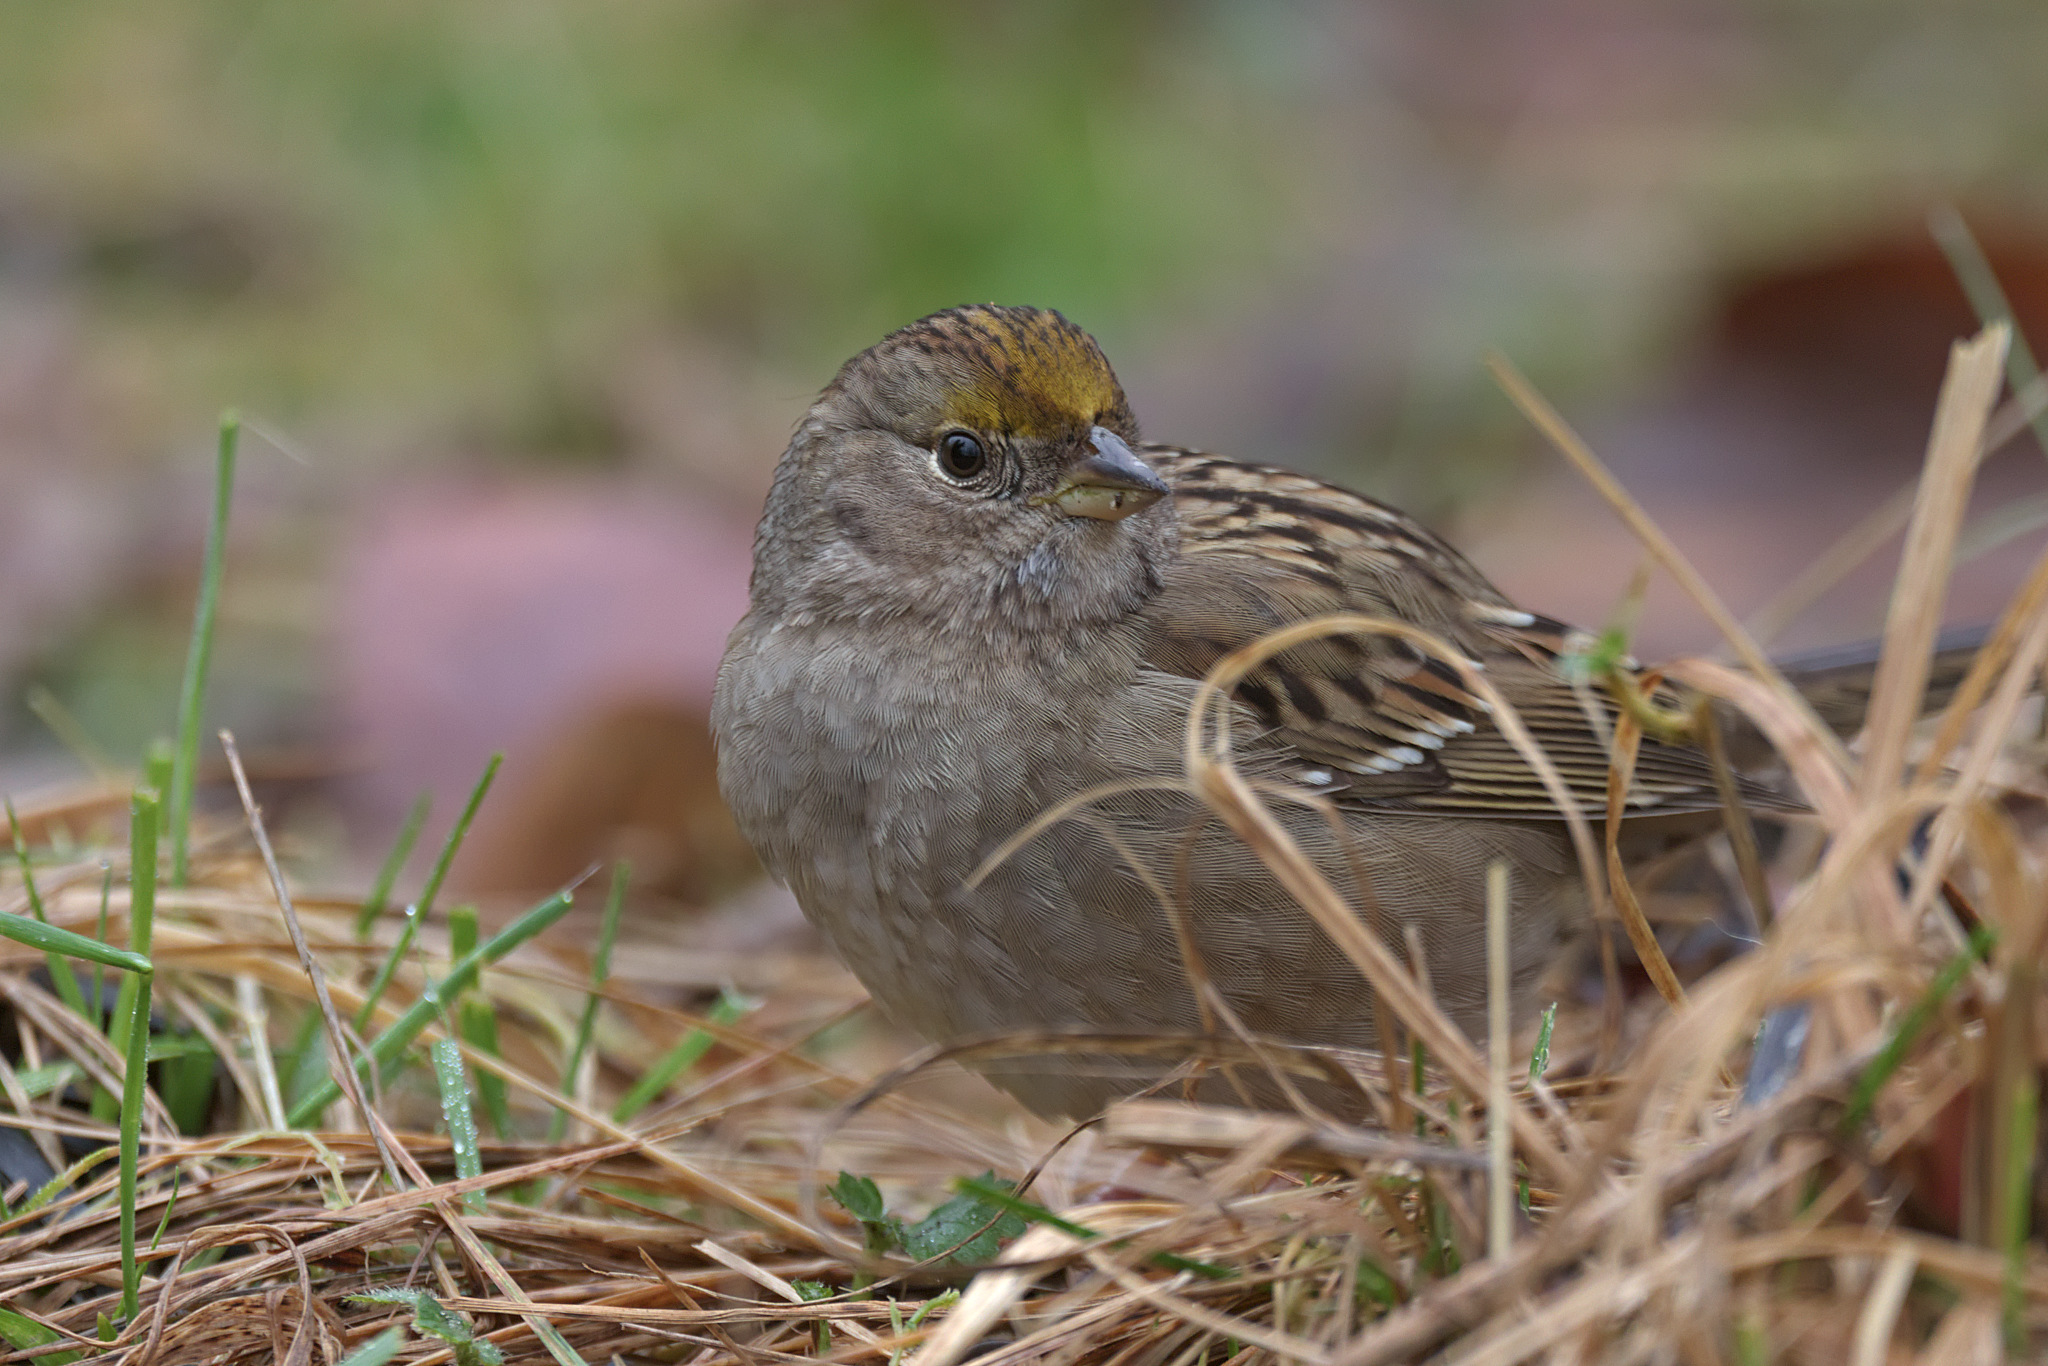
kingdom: Animalia
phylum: Chordata
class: Aves
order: Passeriformes
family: Passerellidae
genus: Zonotrichia
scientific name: Zonotrichia atricapilla
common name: Golden-crowned sparrow
